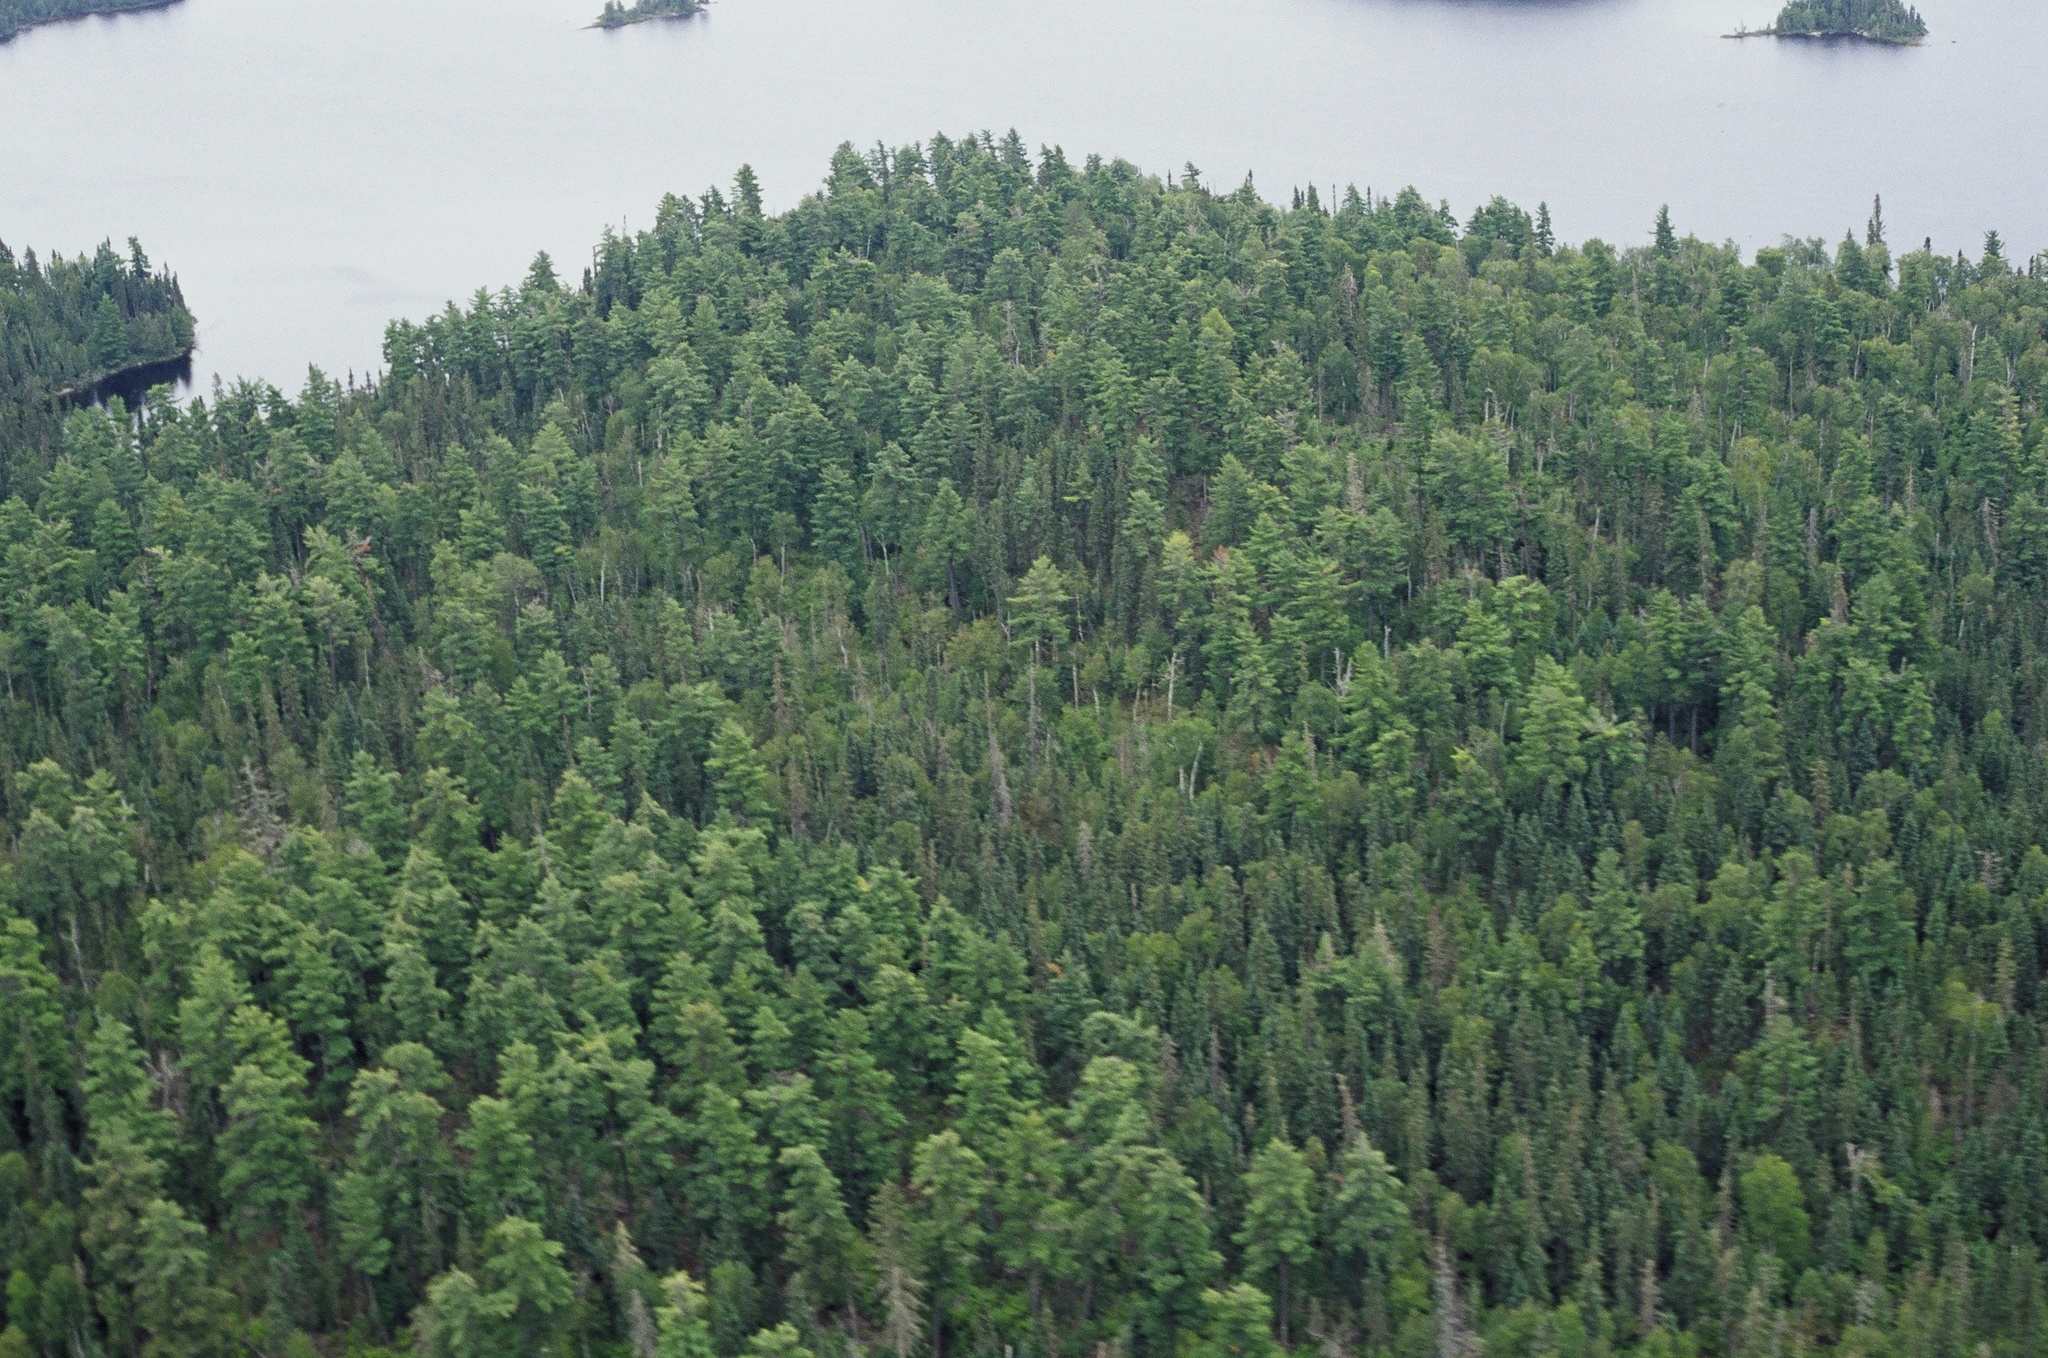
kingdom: Plantae
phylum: Tracheophyta
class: Pinopsida
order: Pinales
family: Pinaceae
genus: Pinus
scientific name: Pinus strobus
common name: Weymouth pine
